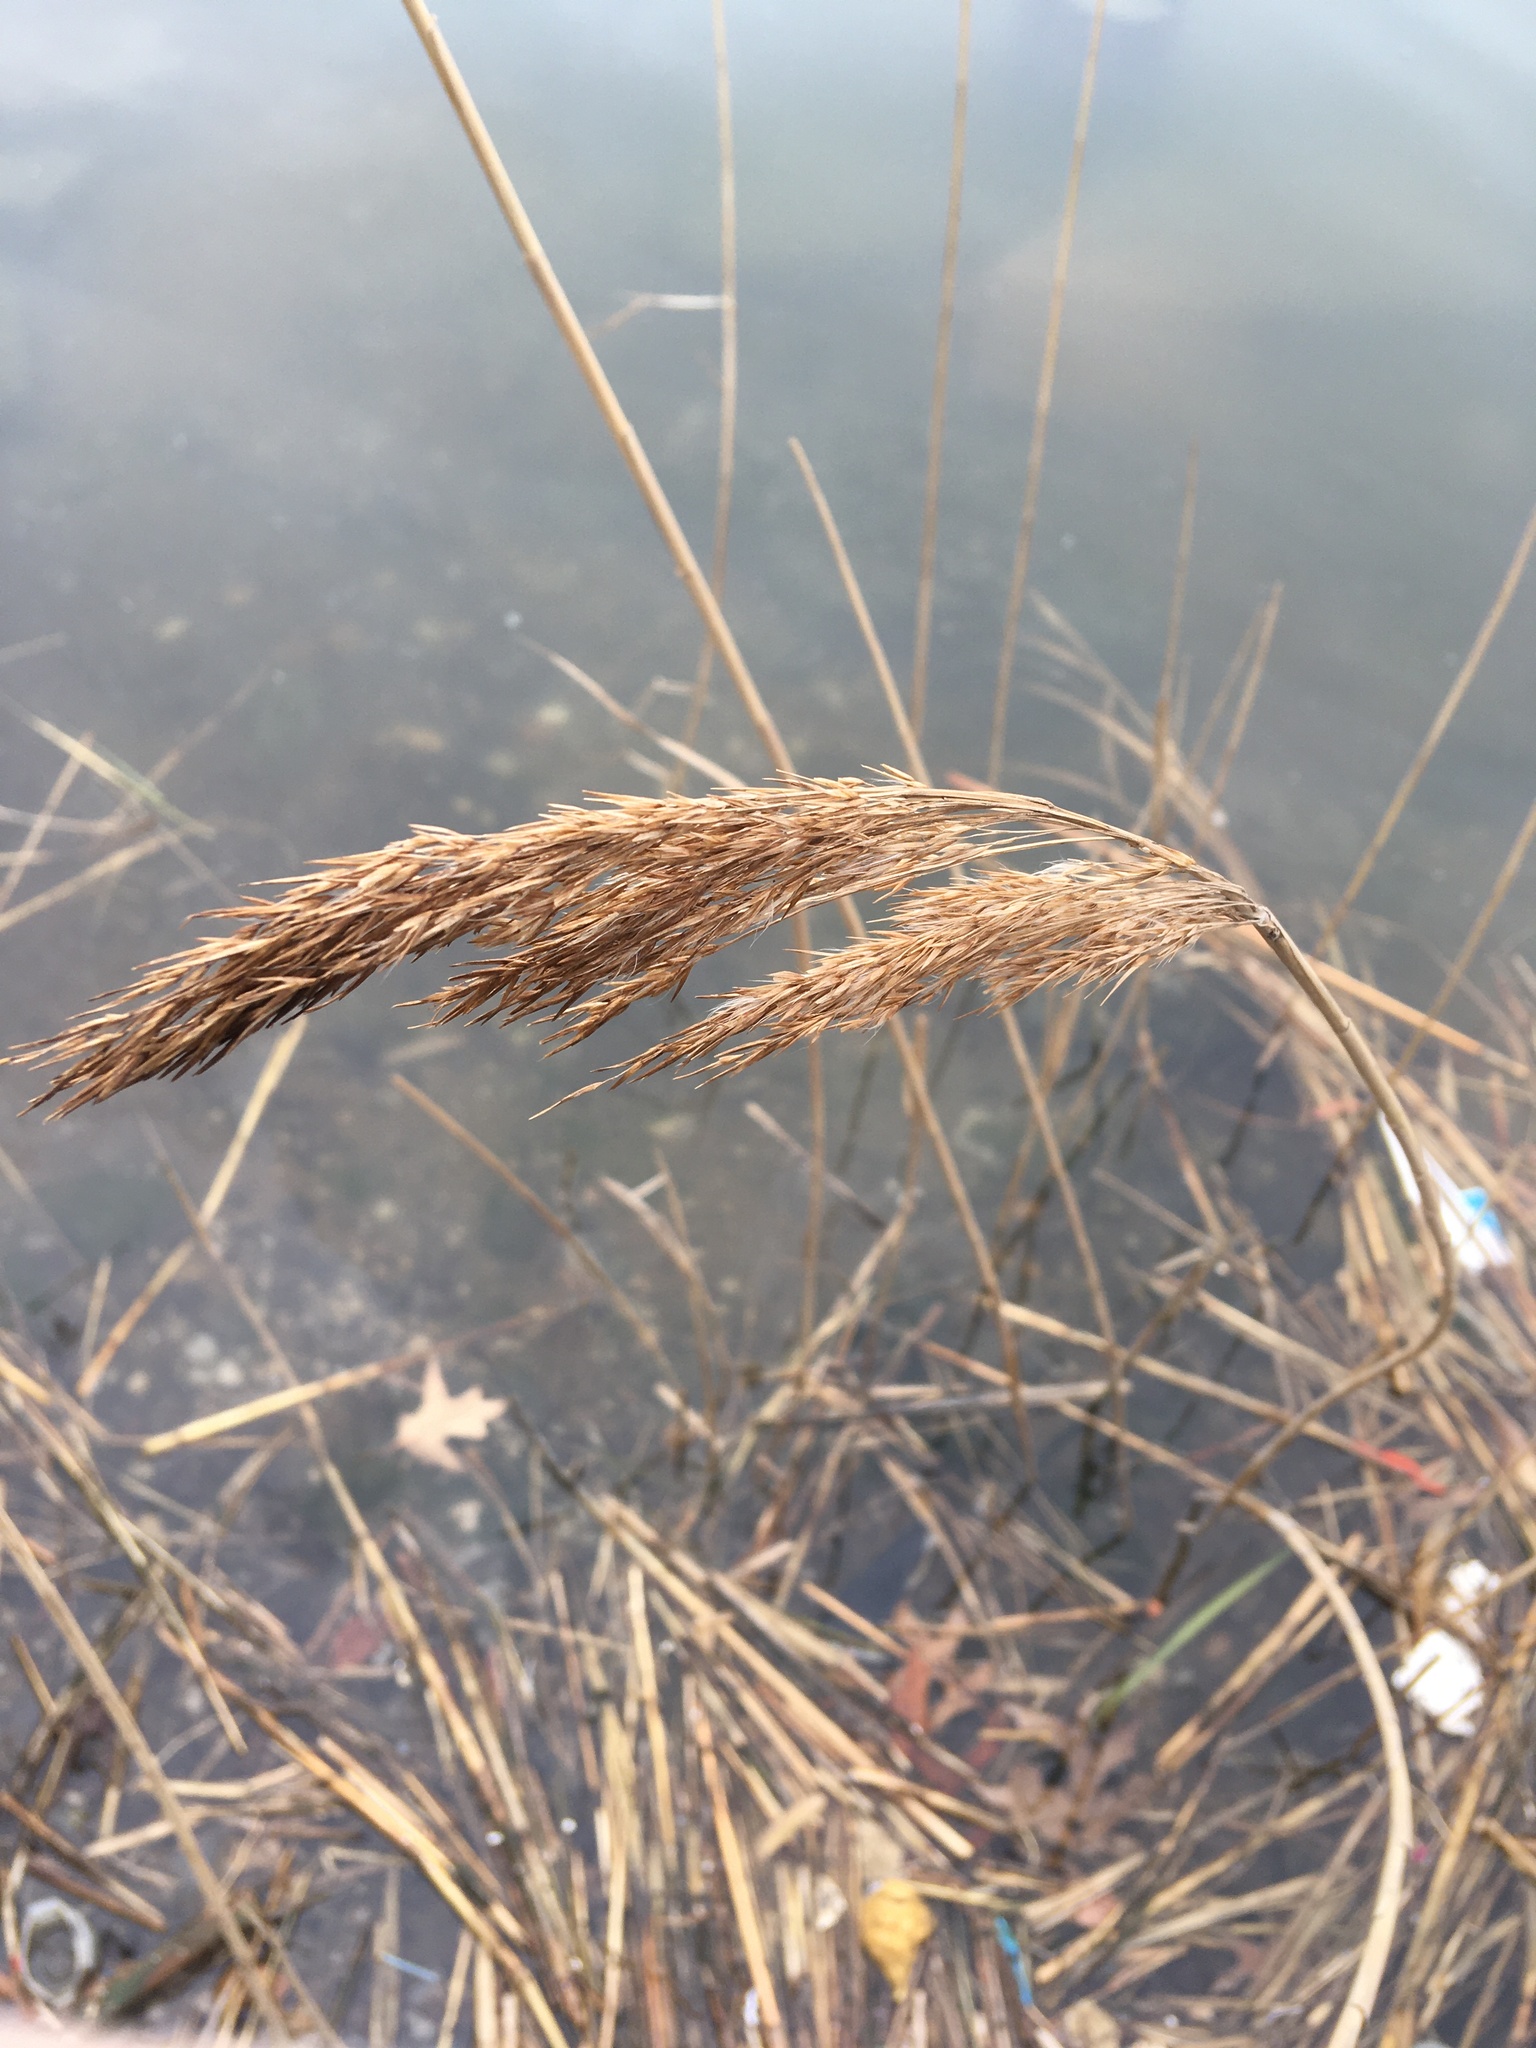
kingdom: Plantae
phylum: Tracheophyta
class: Liliopsida
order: Poales
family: Poaceae
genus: Phragmites
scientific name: Phragmites australis
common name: Common reed
